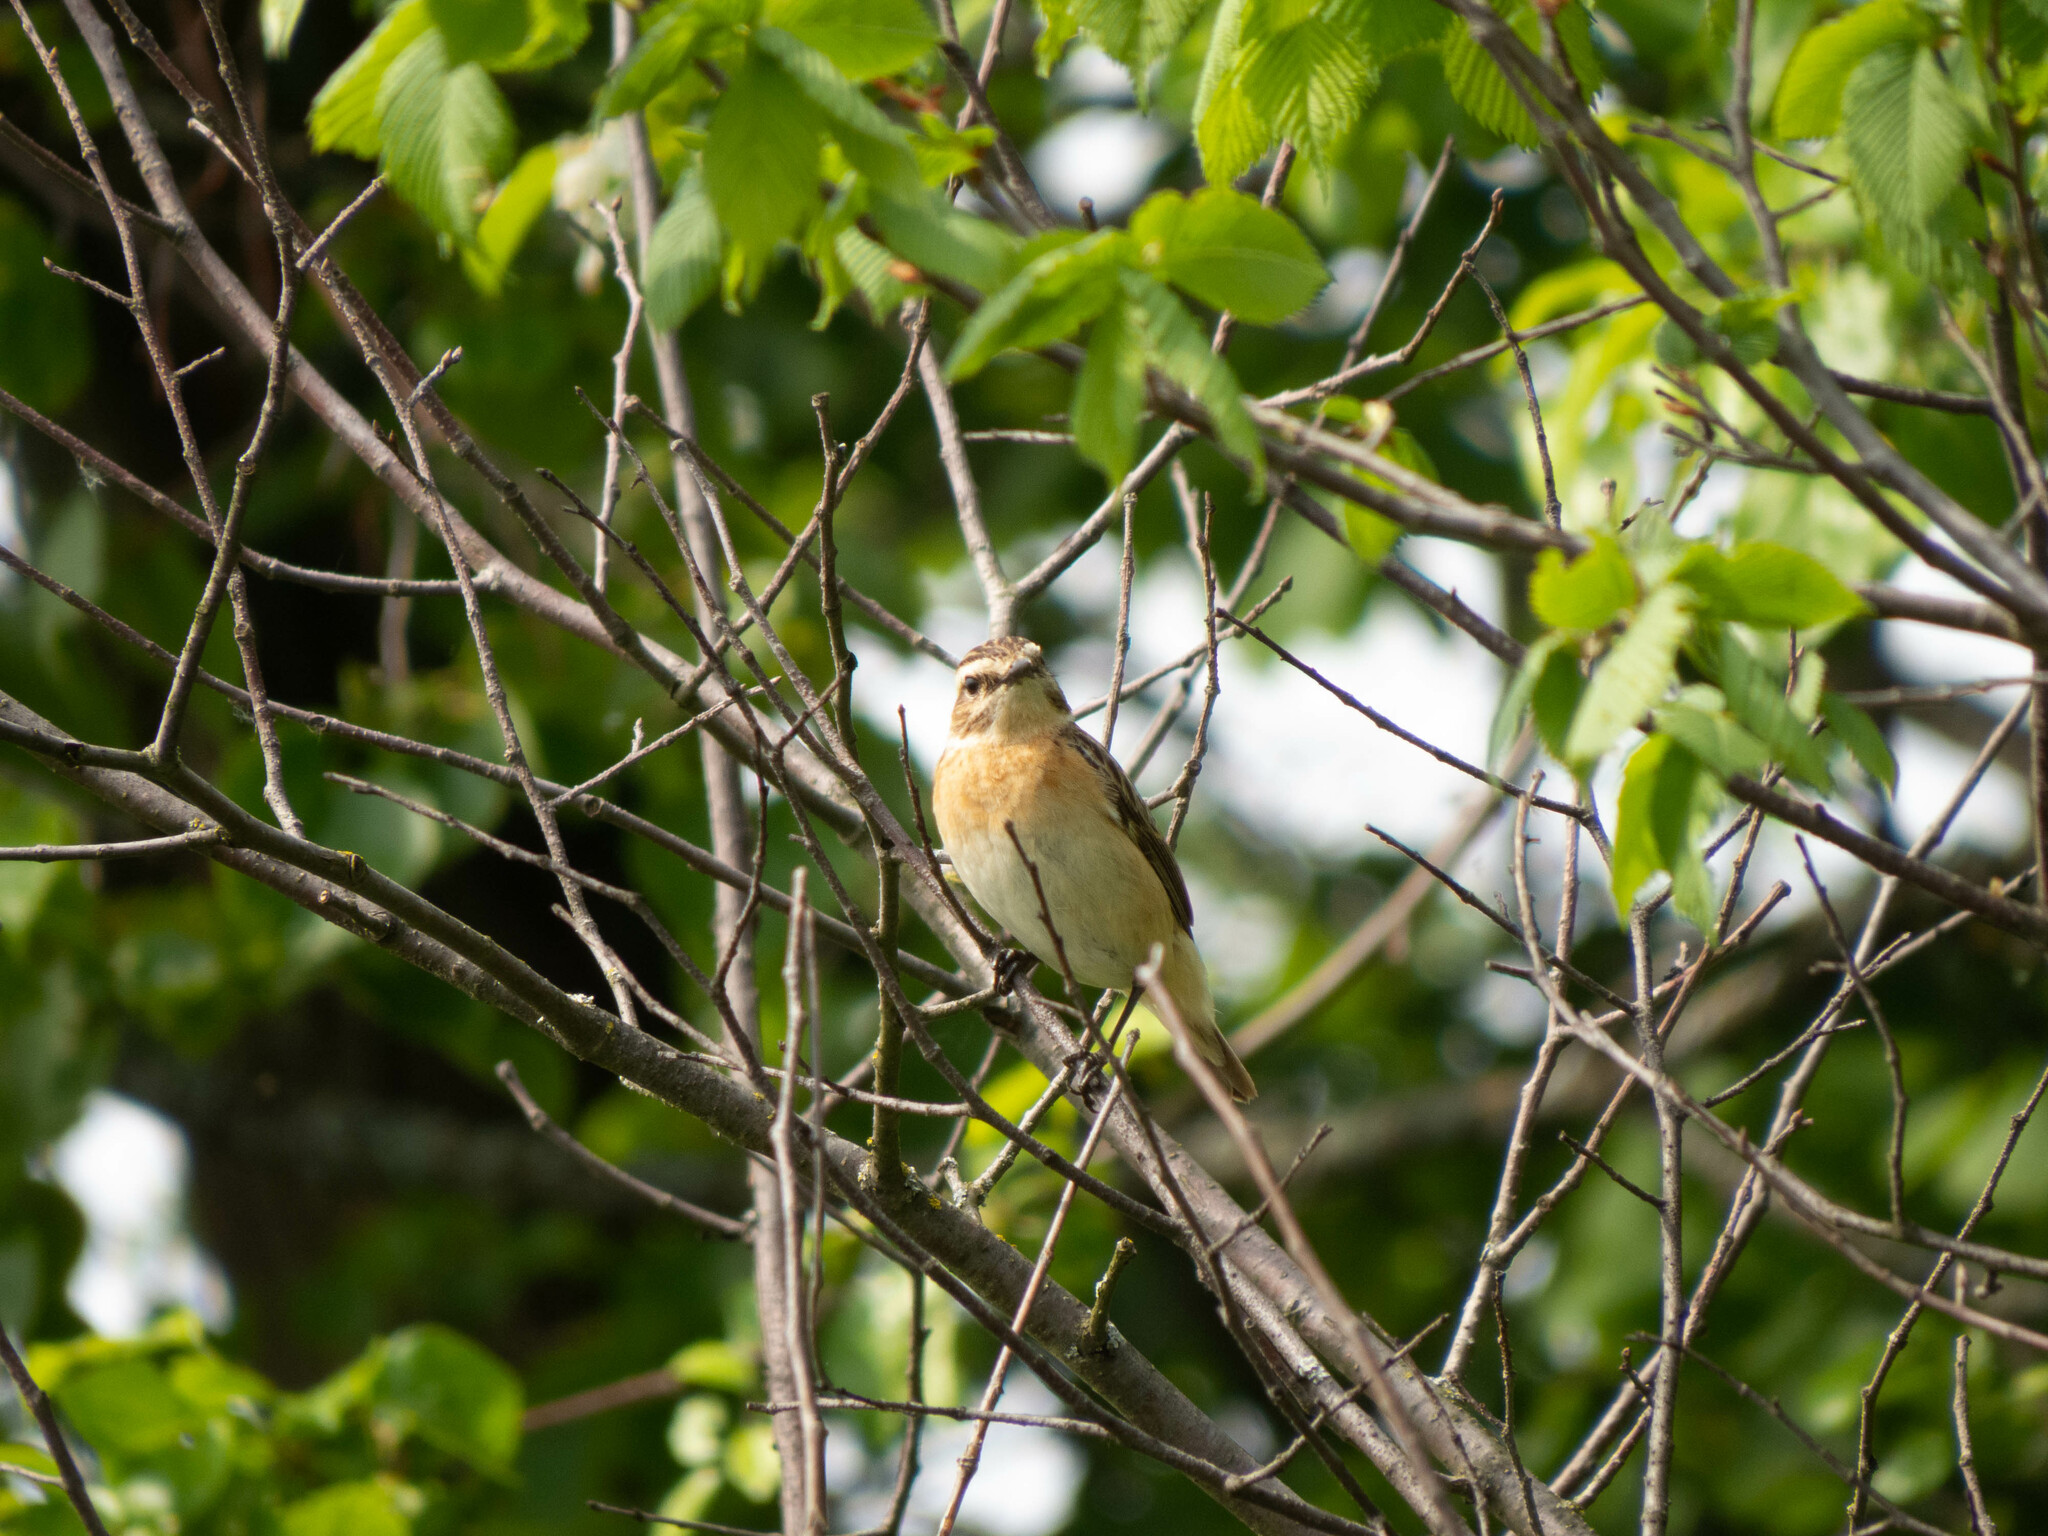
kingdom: Animalia
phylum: Chordata
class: Aves
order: Passeriformes
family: Muscicapidae
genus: Saxicola
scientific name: Saxicola rubetra
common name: Whinchat
